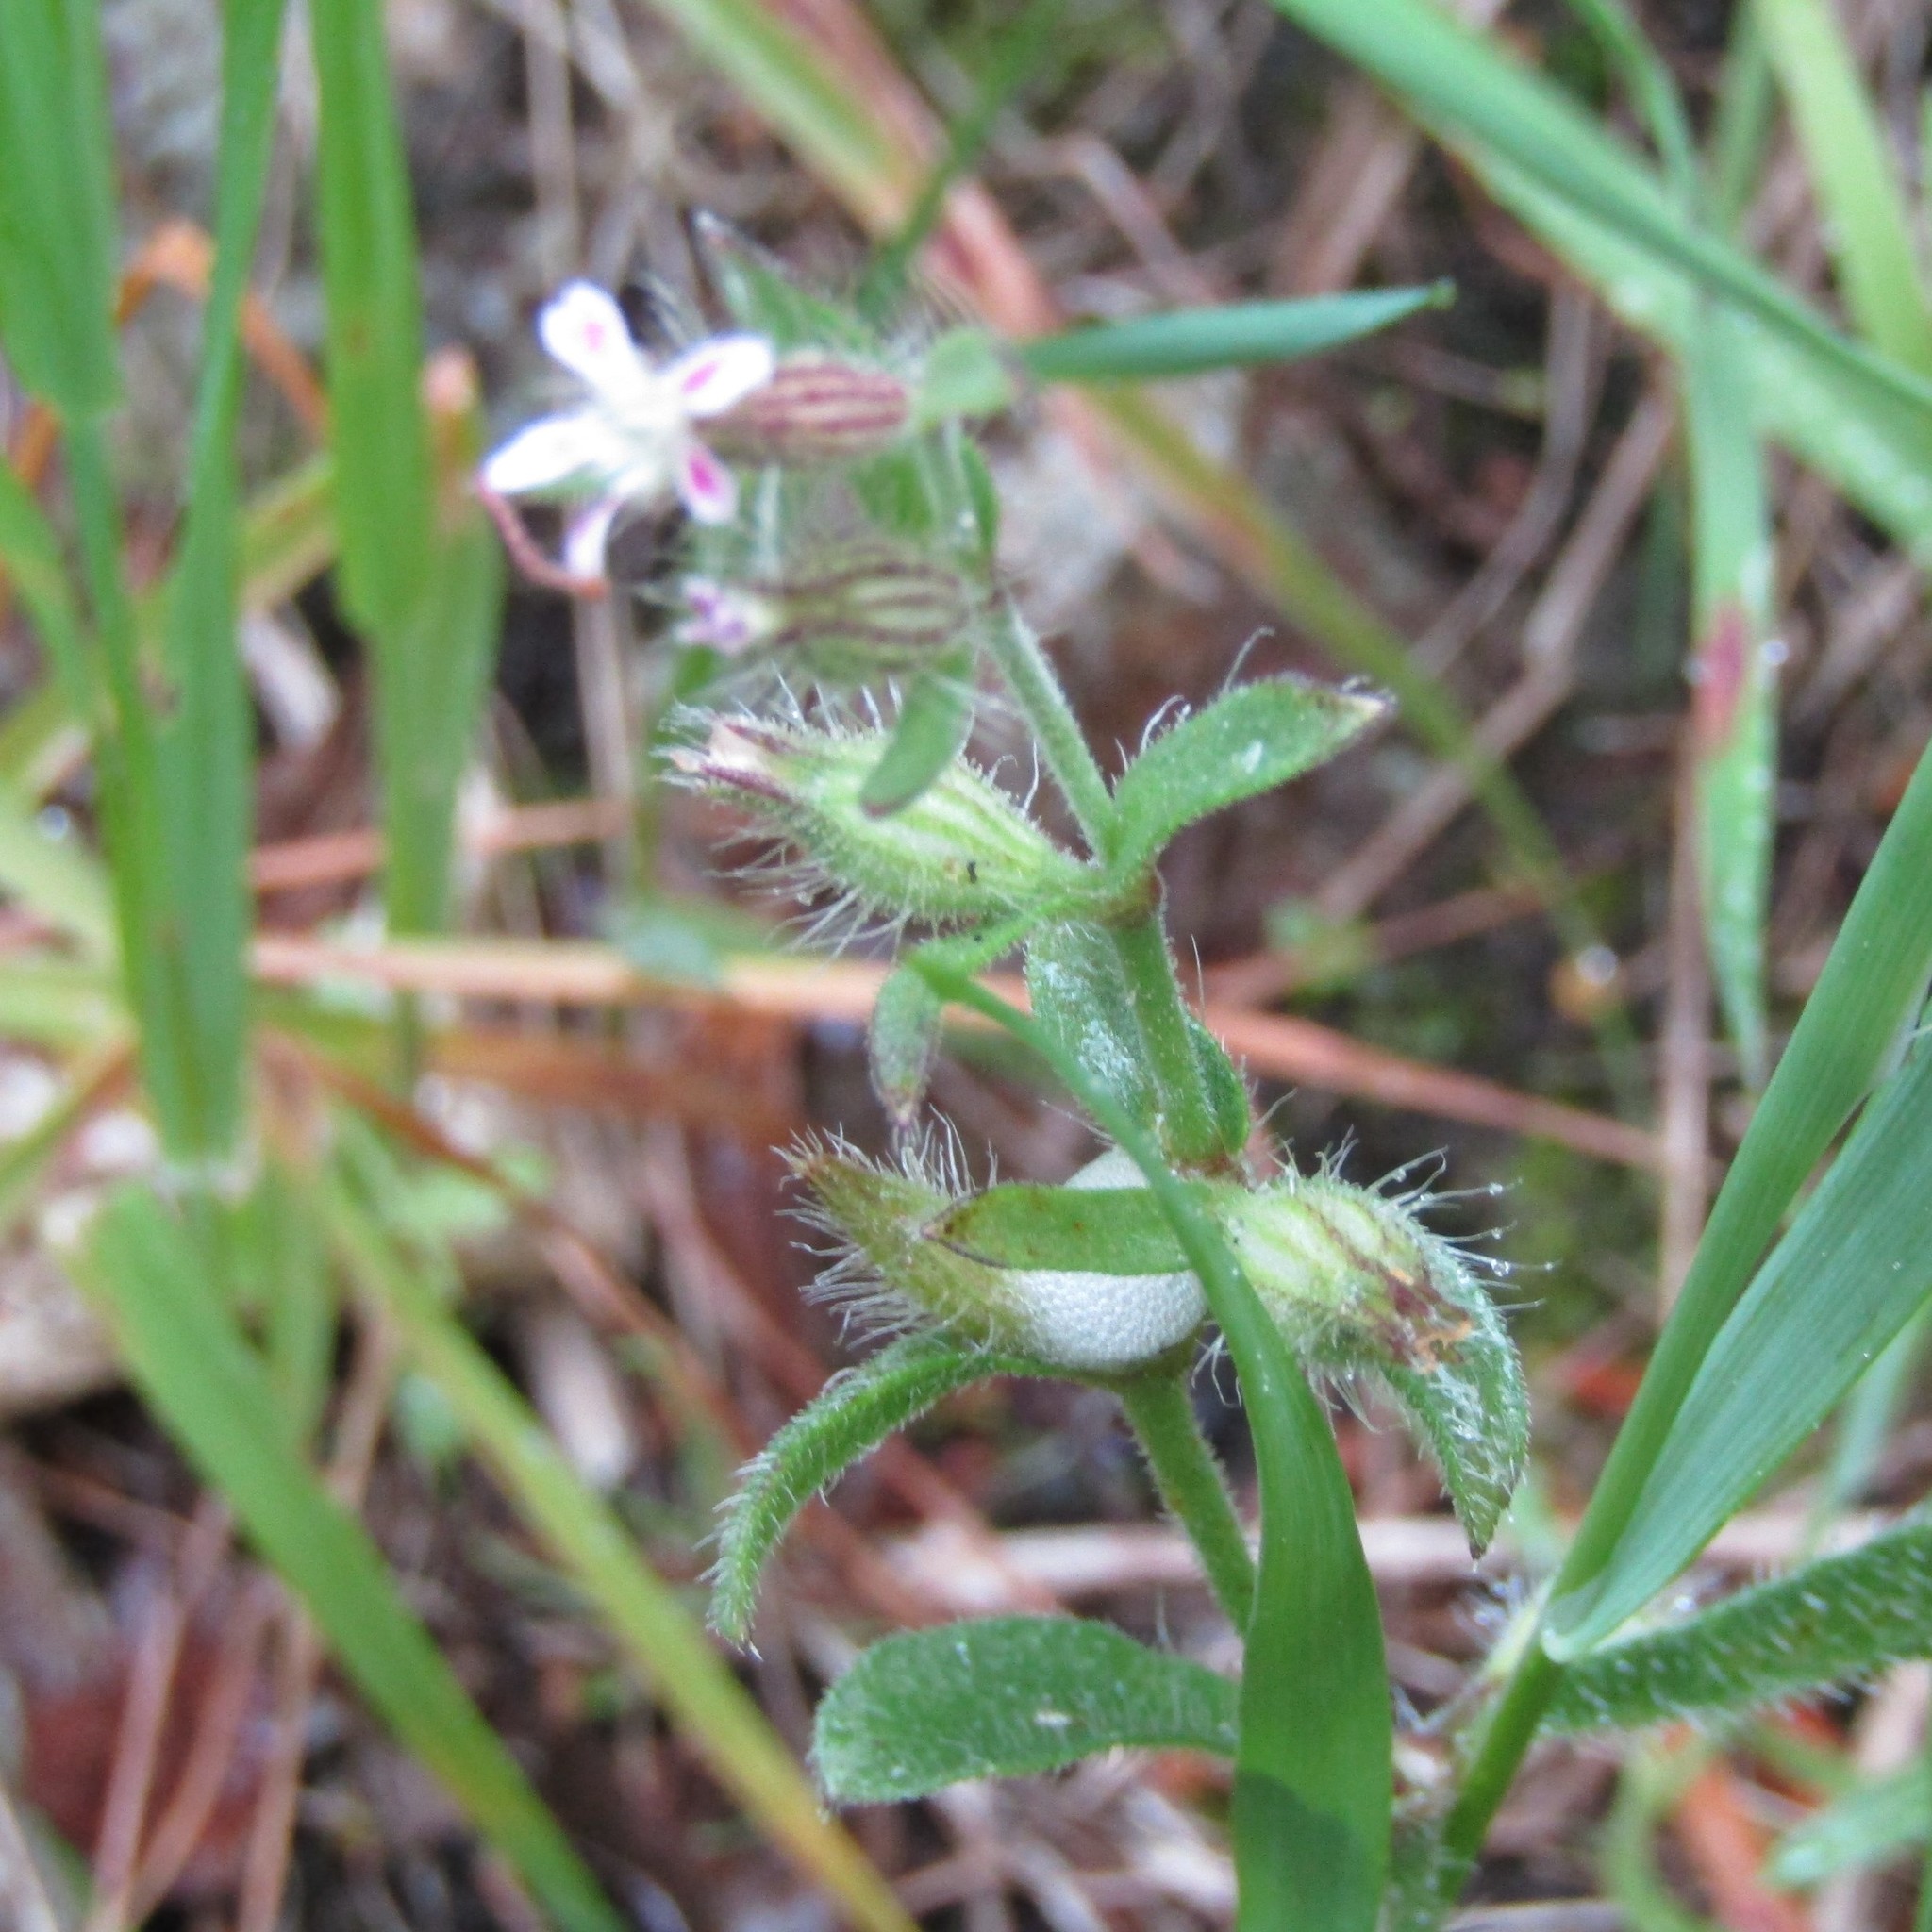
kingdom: Plantae
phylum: Tracheophyta
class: Magnoliopsida
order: Caryophyllales
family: Caryophyllaceae
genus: Silene
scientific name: Silene gallica
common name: Small-flowered catchfly
